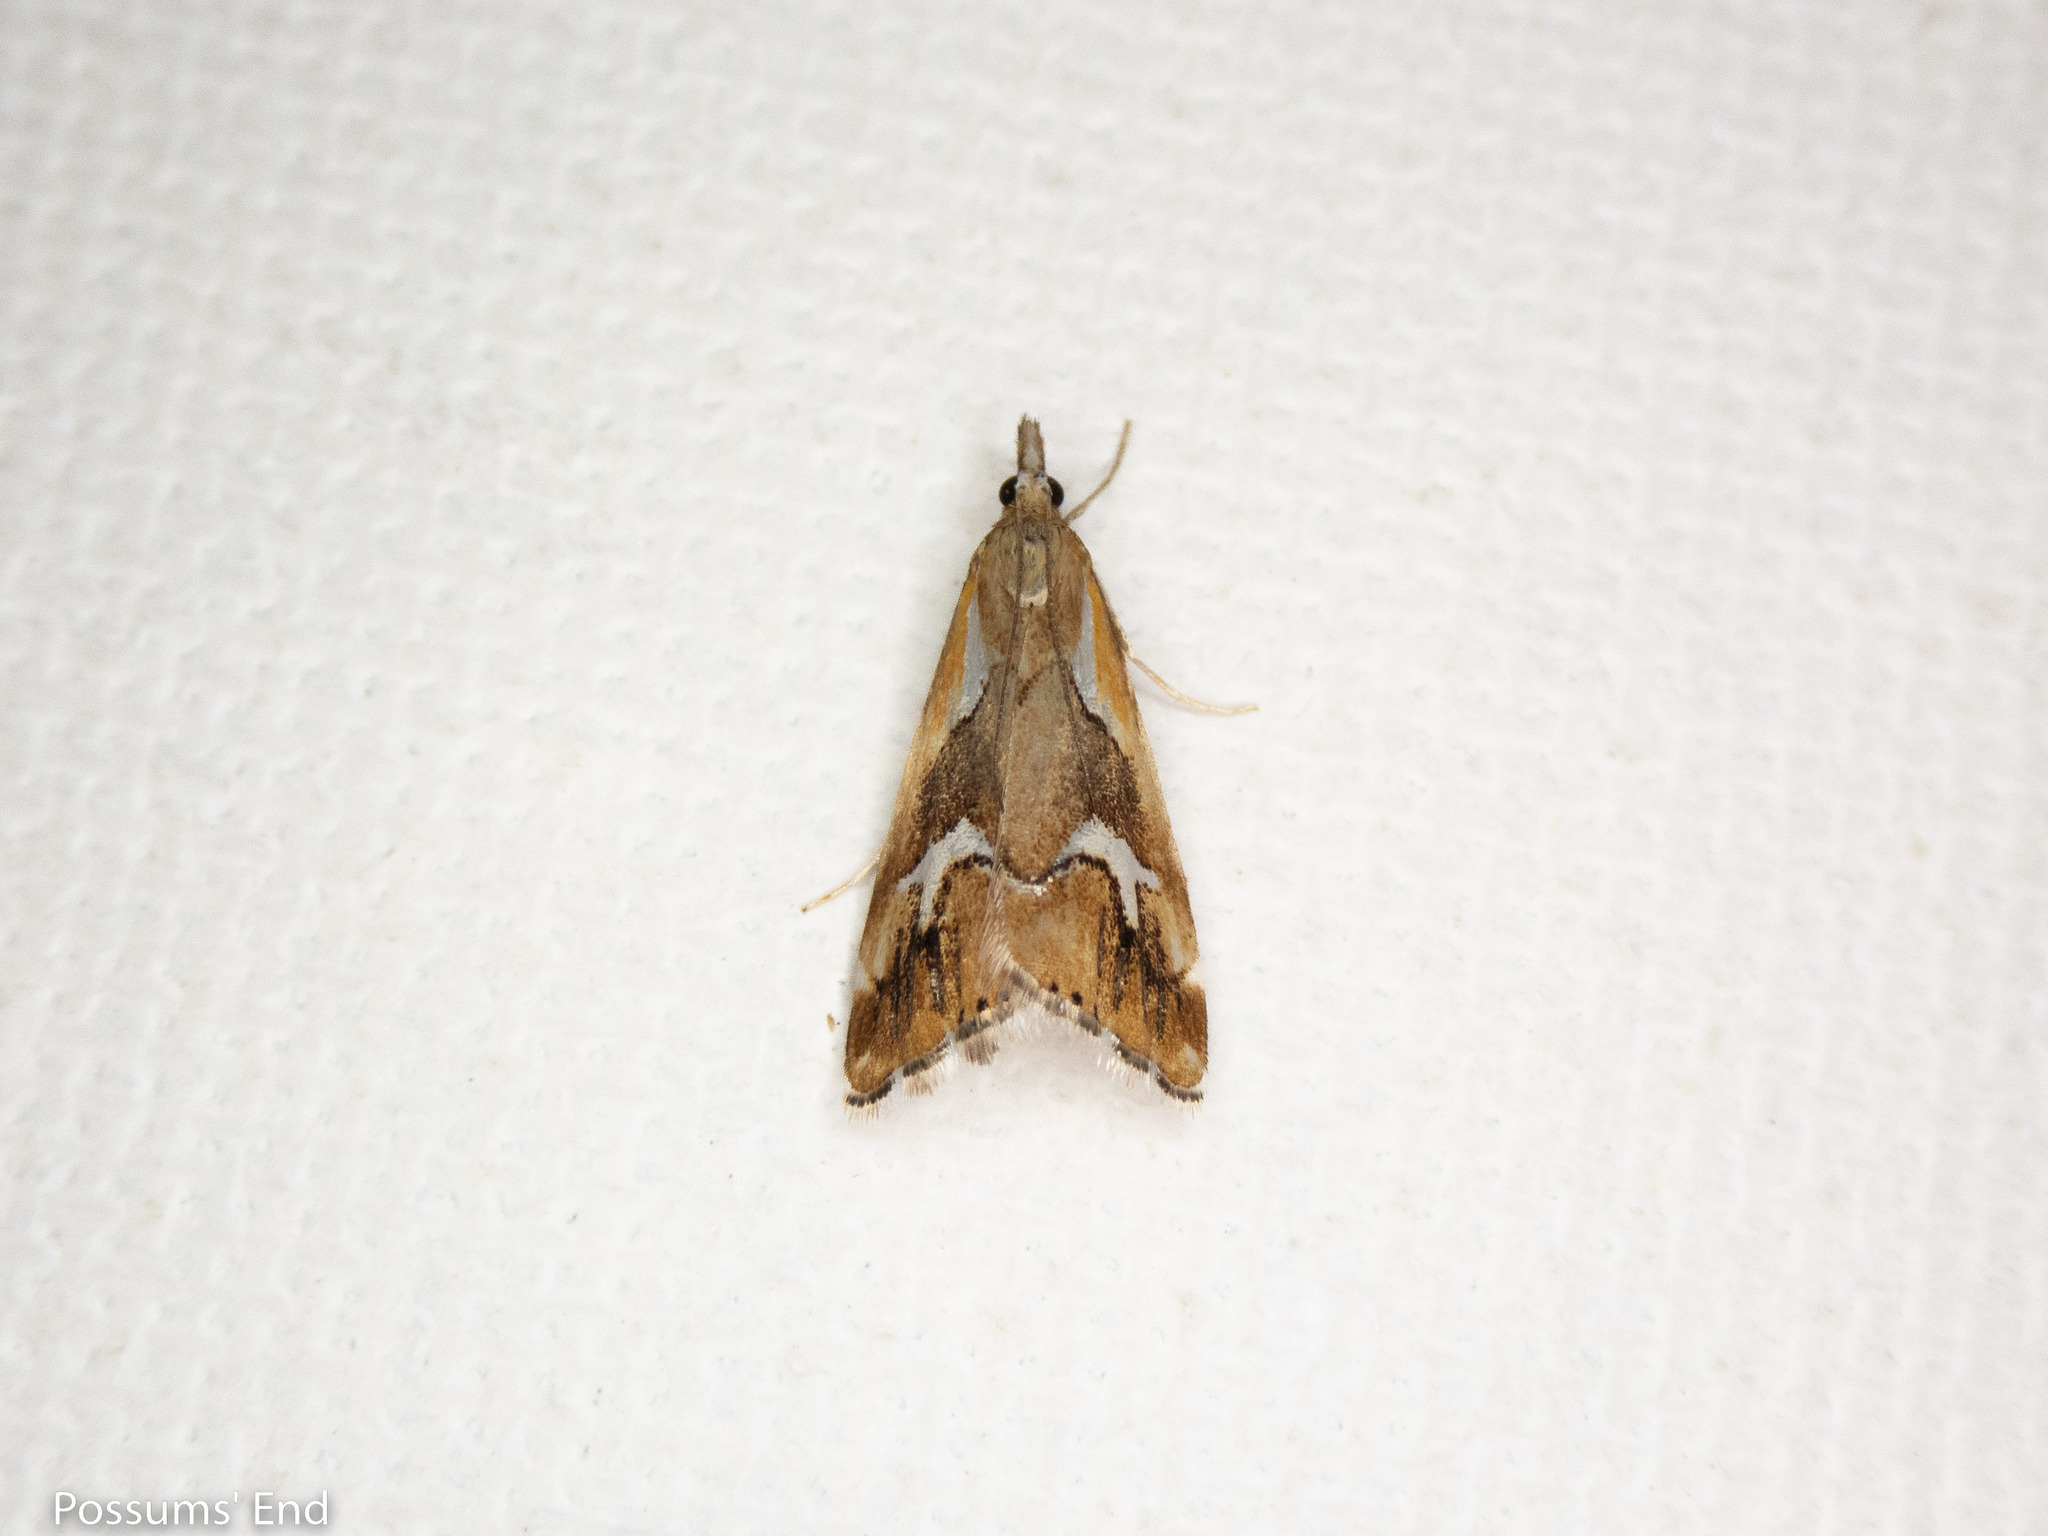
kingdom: Animalia
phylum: Arthropoda
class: Insecta
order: Lepidoptera
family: Crambidae
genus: Glaucocharis
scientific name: Glaucocharis interruptus
